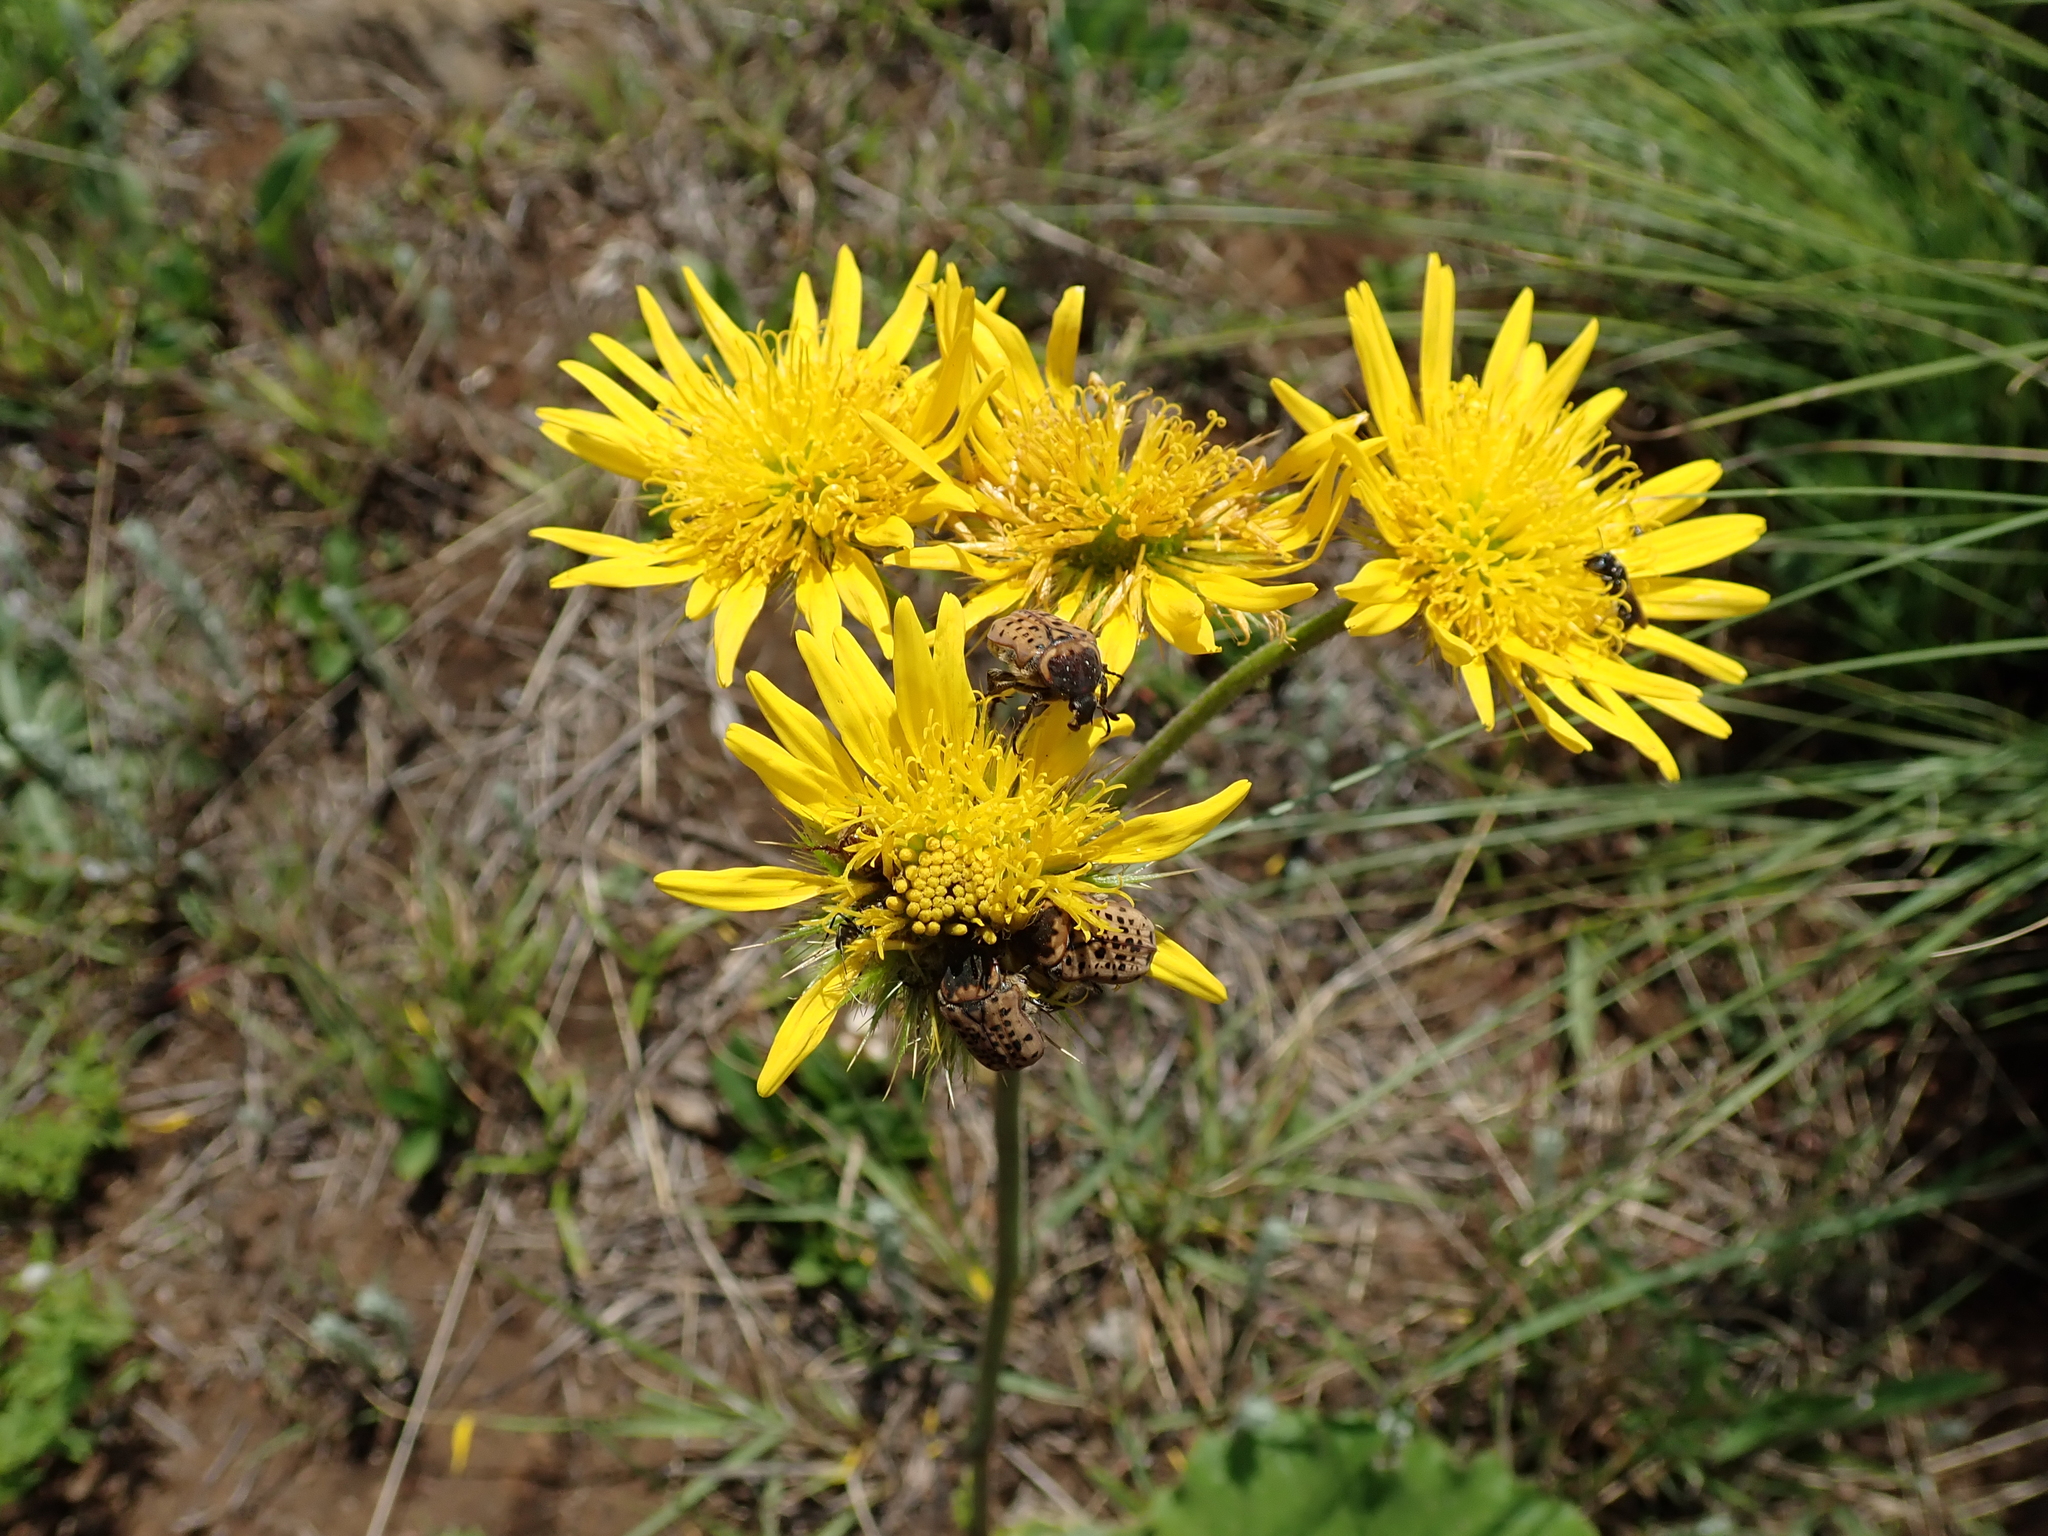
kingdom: Plantae
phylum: Tracheophyta
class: Magnoliopsida
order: Asterales
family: Asteraceae
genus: Berkheya
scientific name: Berkheya speciosa
